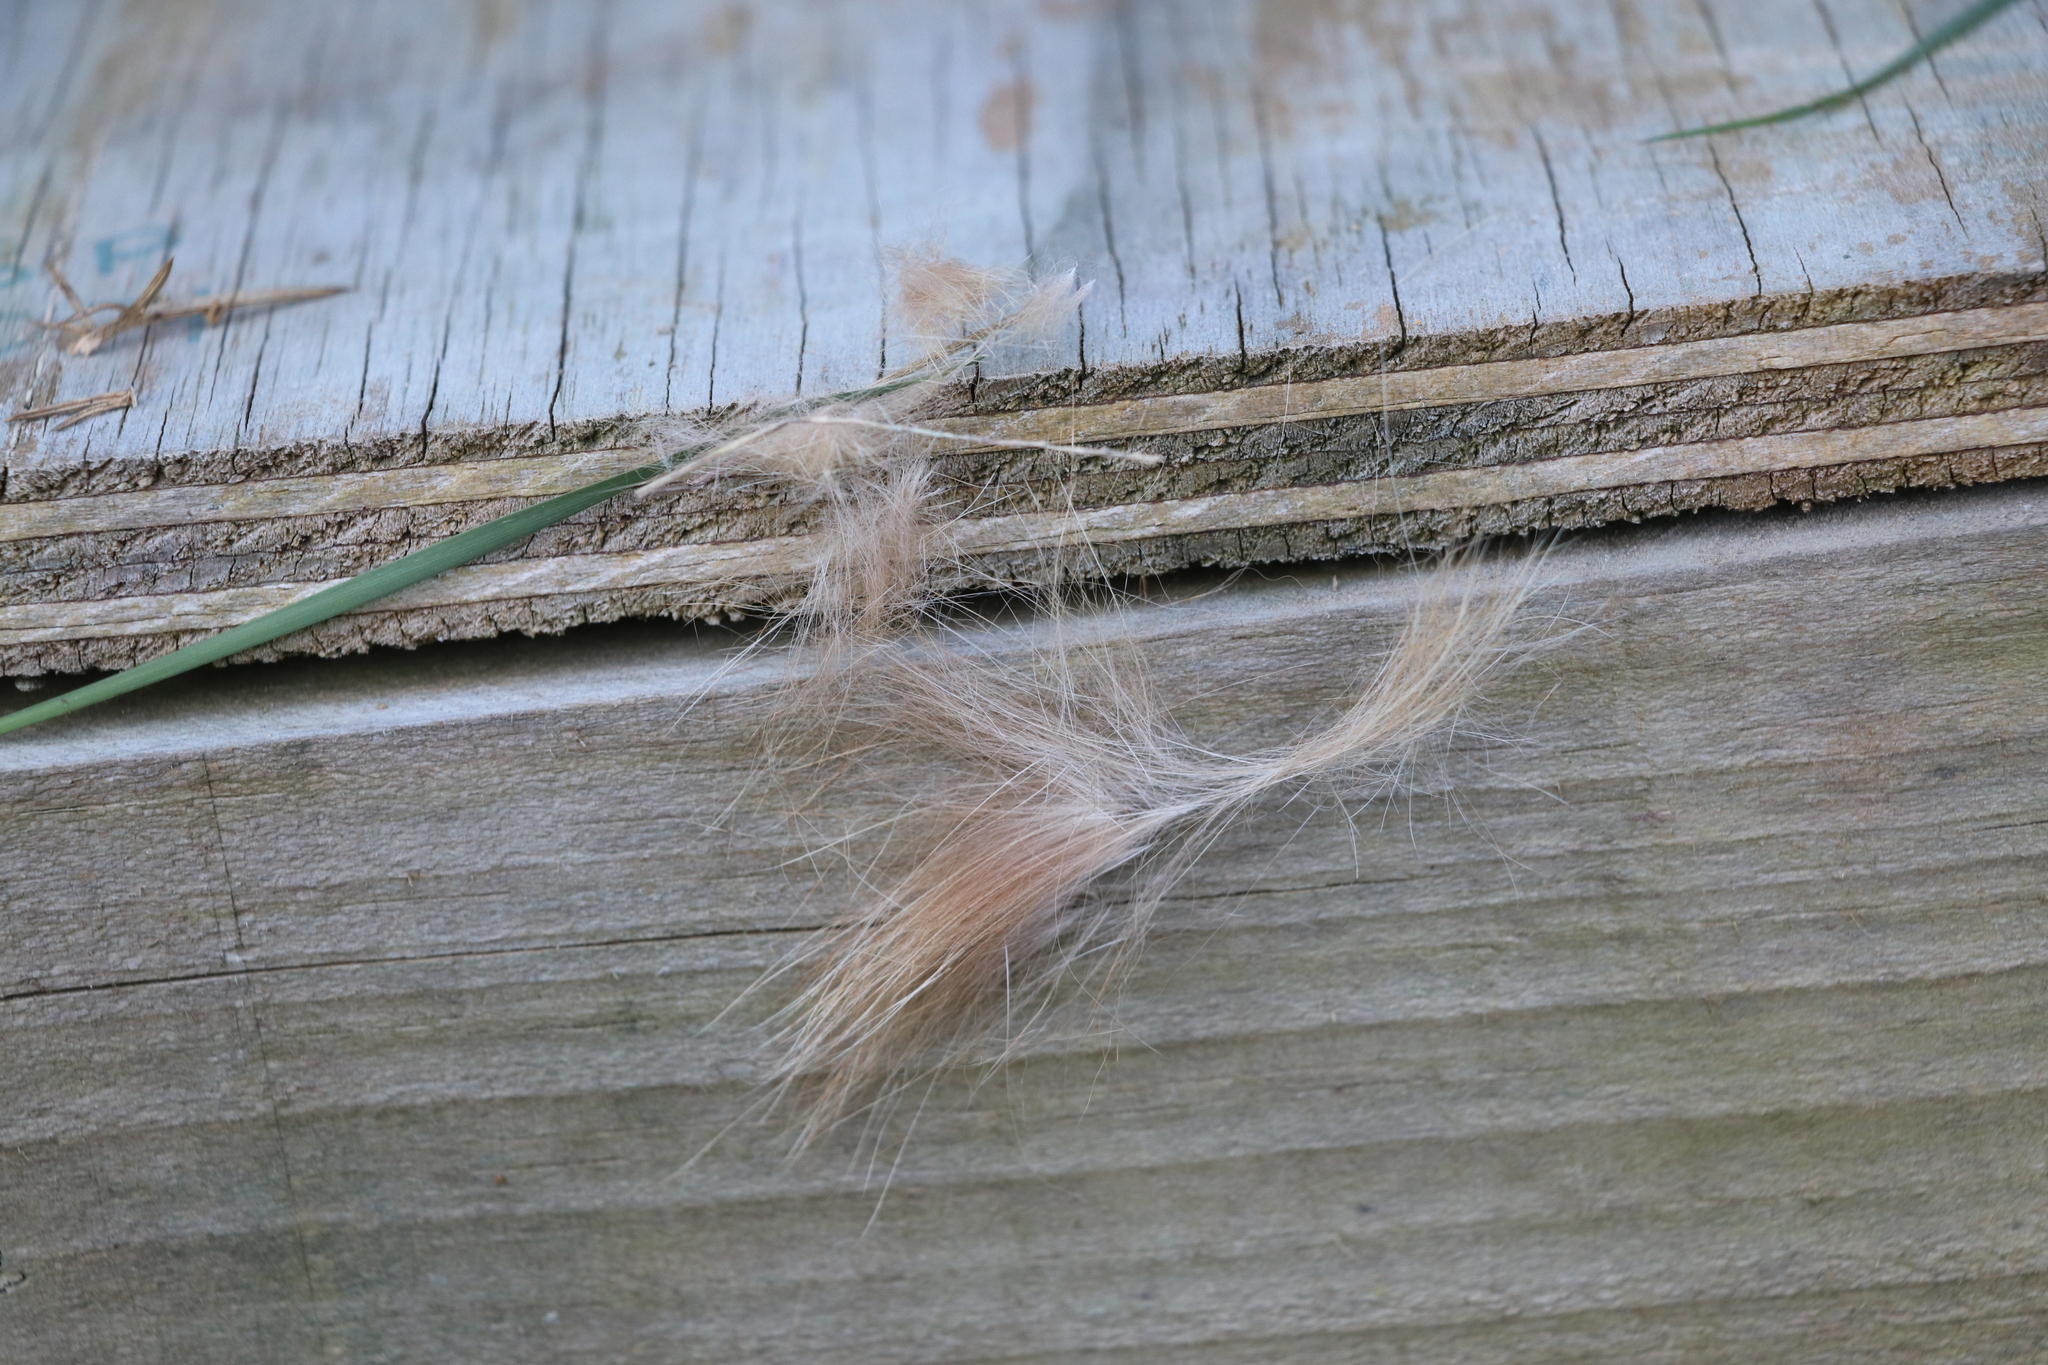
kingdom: Animalia
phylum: Chordata
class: Mammalia
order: Carnivora
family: Felidae
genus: Felis
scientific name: Felis catus
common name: Domestic cat
